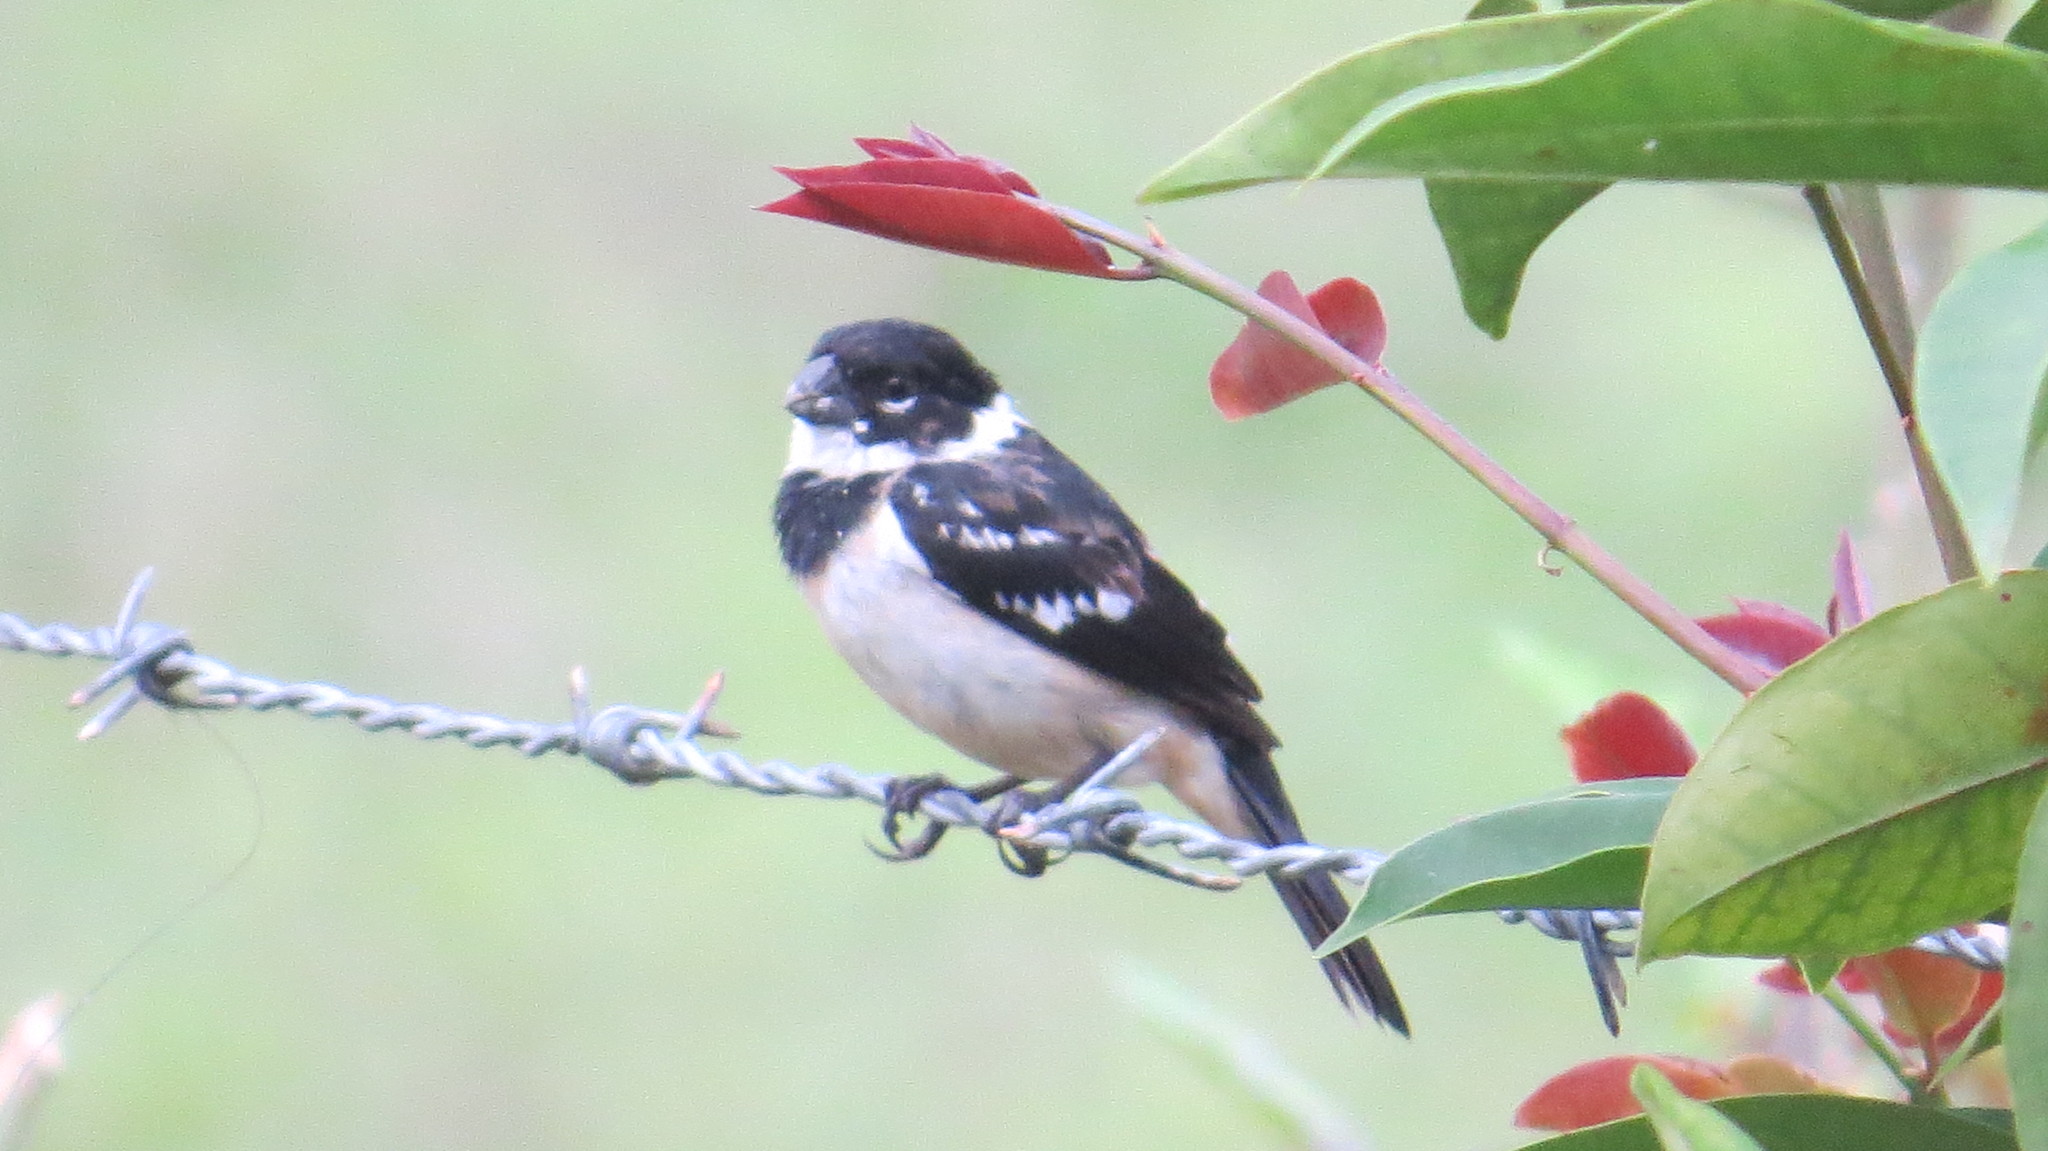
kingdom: Animalia
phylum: Chordata
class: Aves
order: Passeriformes
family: Thraupidae
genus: Sporophila
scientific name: Sporophila morelleti
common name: Morelet's seedeater
